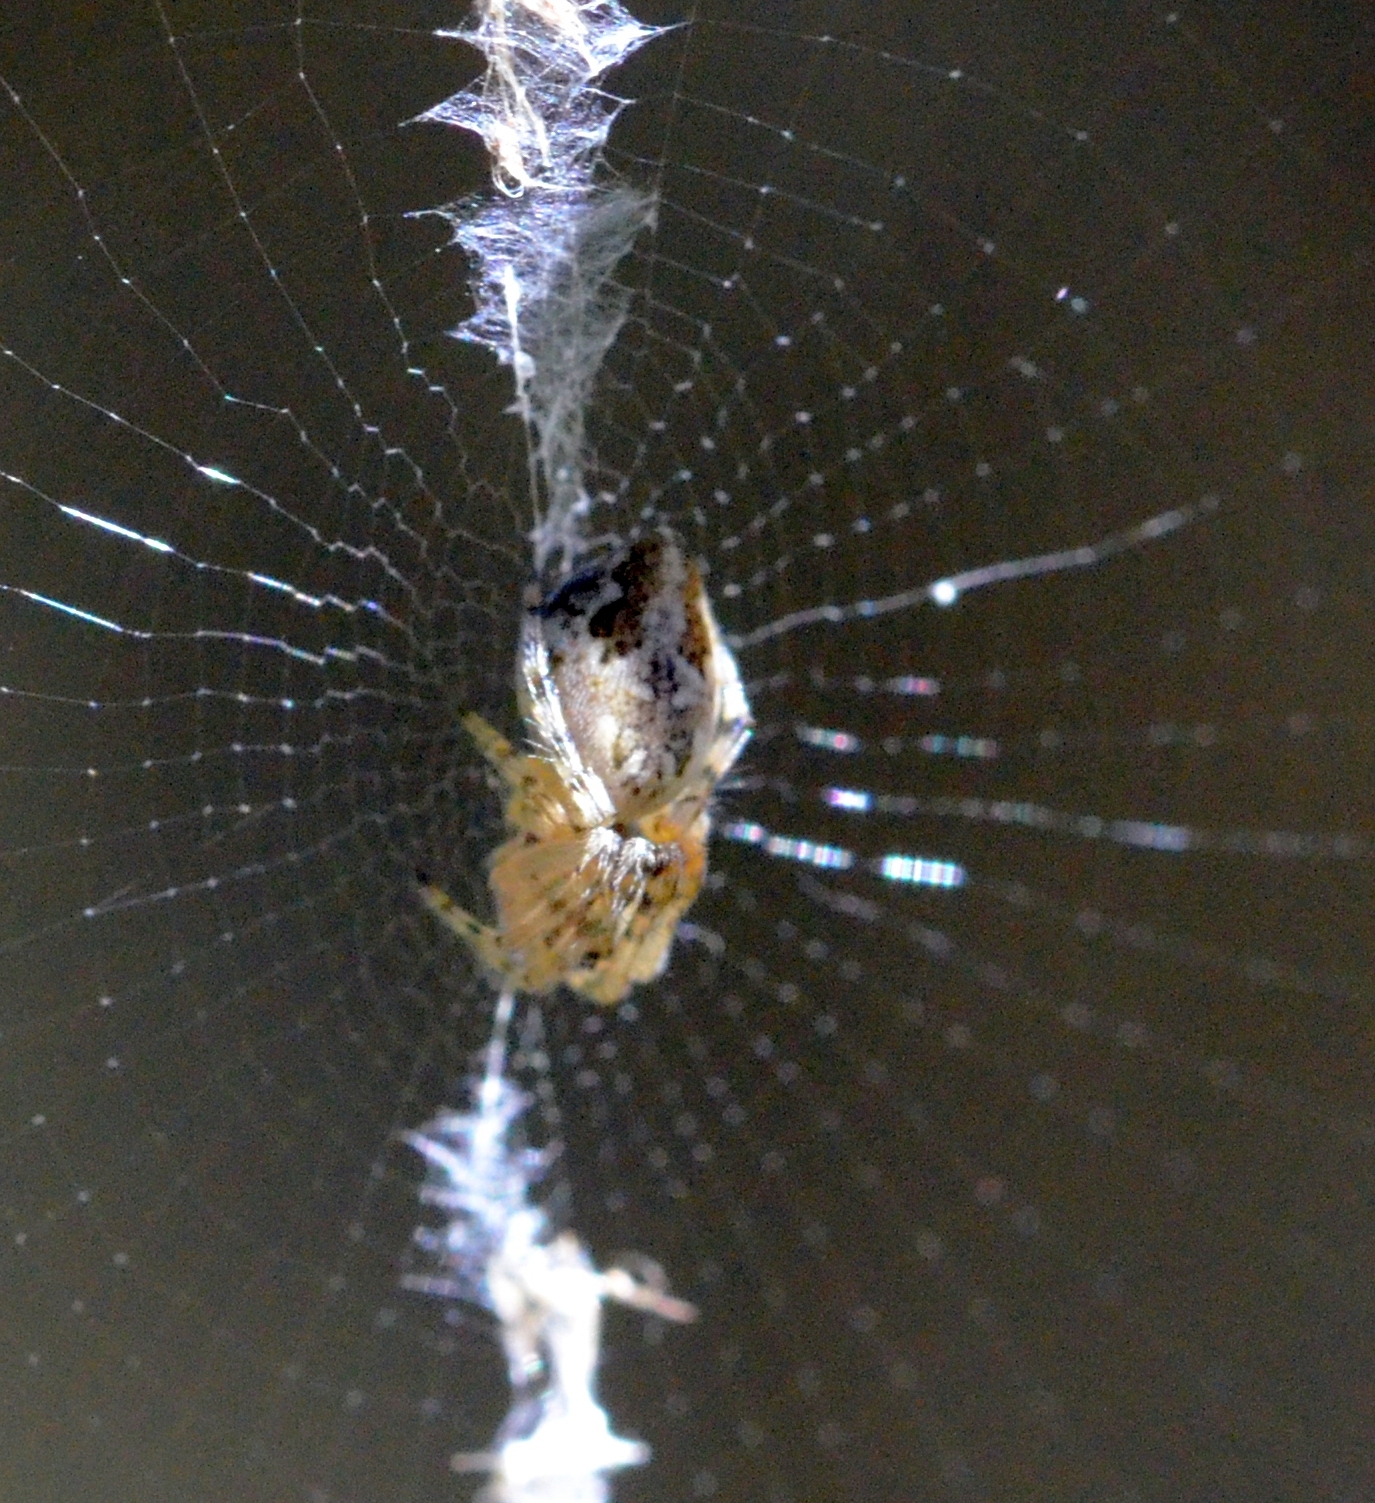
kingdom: Animalia
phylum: Arthropoda
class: Arachnida
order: Araneae
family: Araneidae
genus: Cyclosa
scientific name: Cyclosa conica
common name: Conical trashline orbweaver
